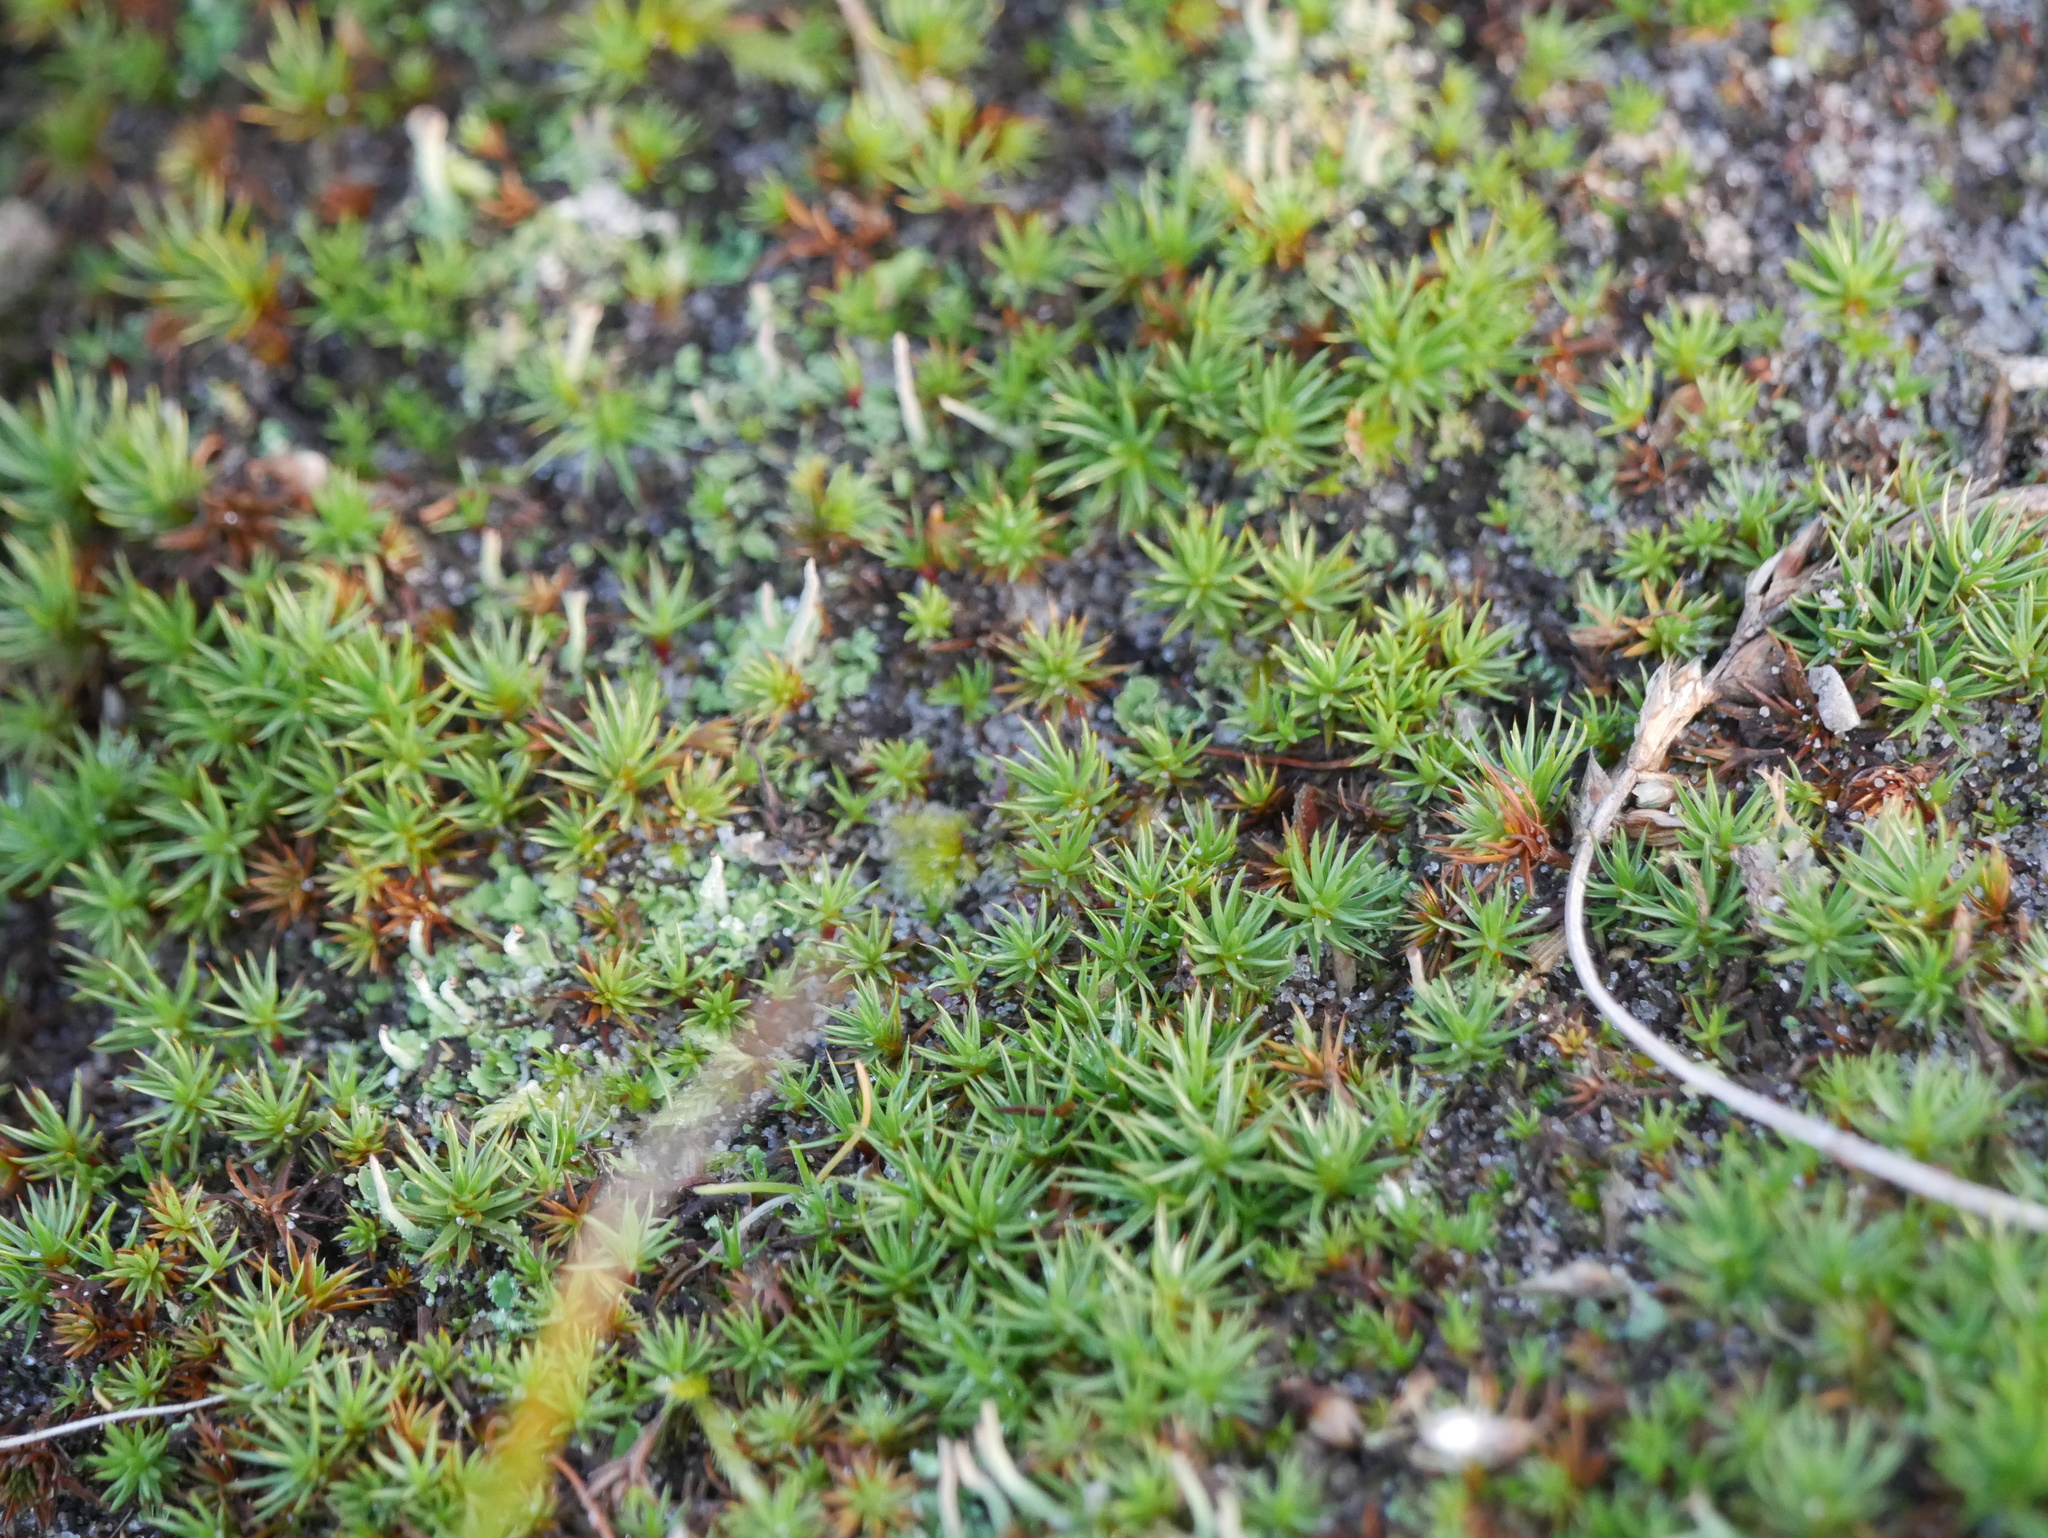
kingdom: Plantae
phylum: Bryophyta
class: Polytrichopsida
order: Polytrichales
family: Polytrichaceae
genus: Polytrichum
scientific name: Polytrichum juniperinum
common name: Juniper haircap moss
